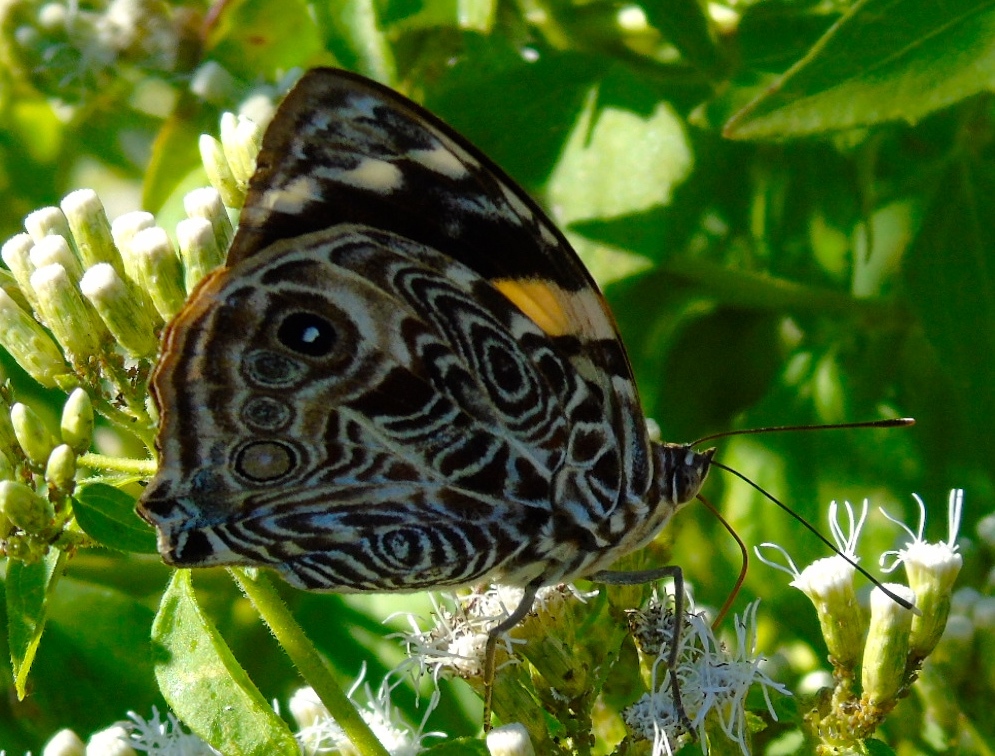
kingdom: Animalia
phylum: Arthropoda
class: Insecta
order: Lepidoptera
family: Nymphalidae
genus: Smyrna
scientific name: Smyrna blomfildia
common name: Blomfild's beauty
